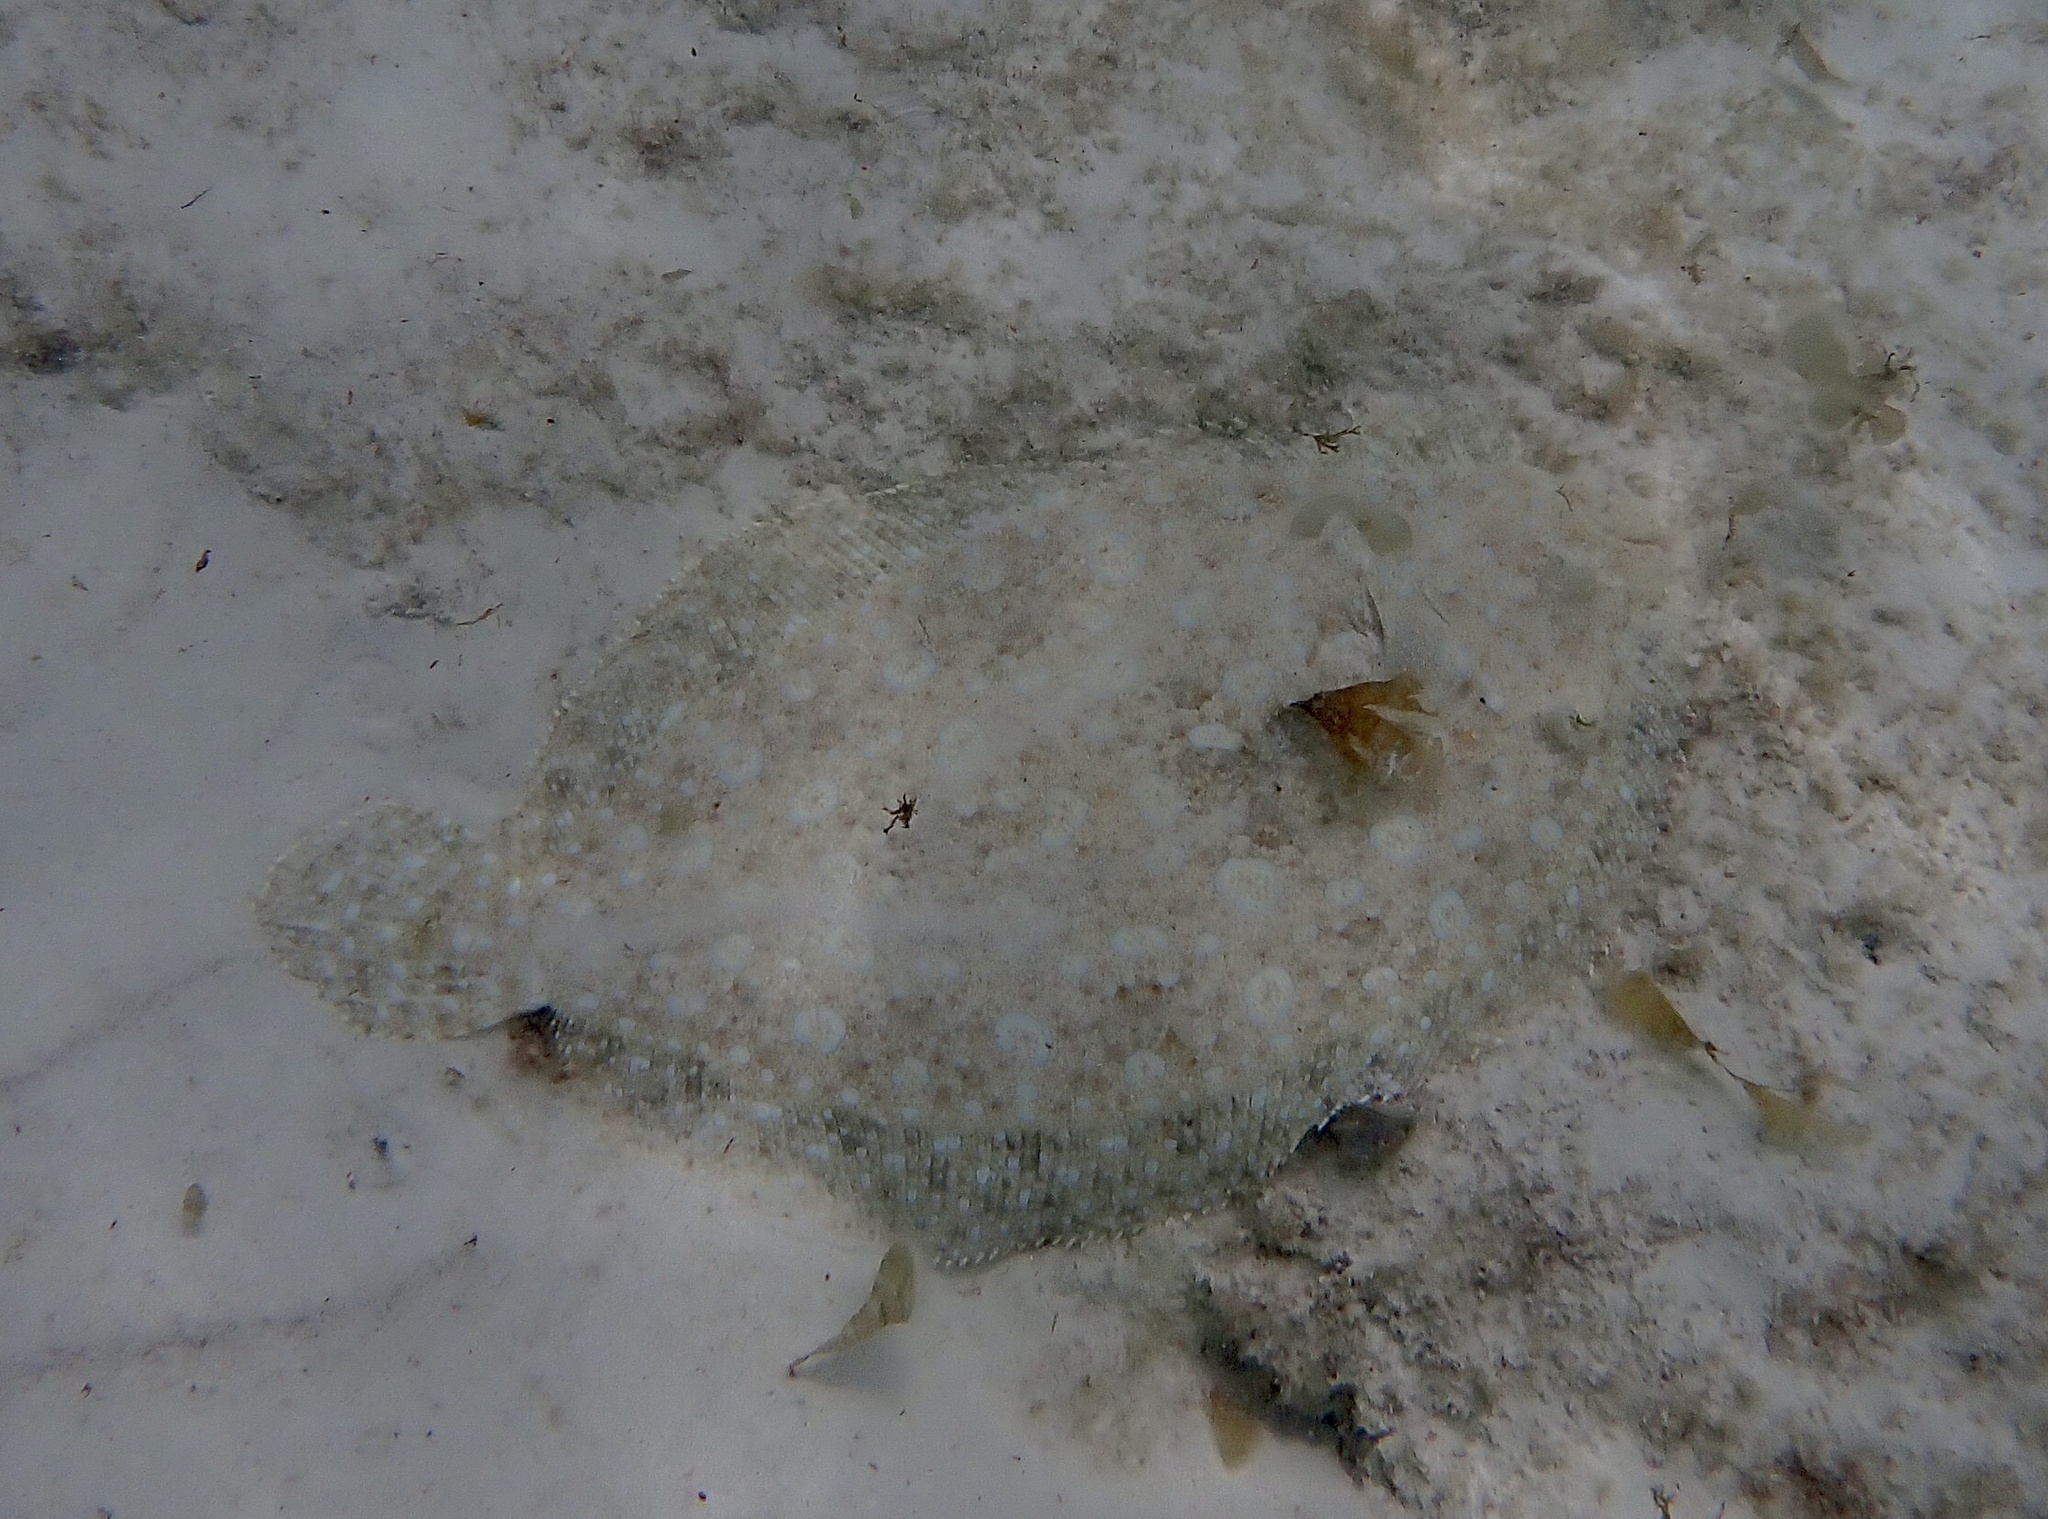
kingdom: Animalia
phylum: Chordata
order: Pleuronectiformes
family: Bothidae
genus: Bothus
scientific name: Bothus lunatus
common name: Peacock flounder
